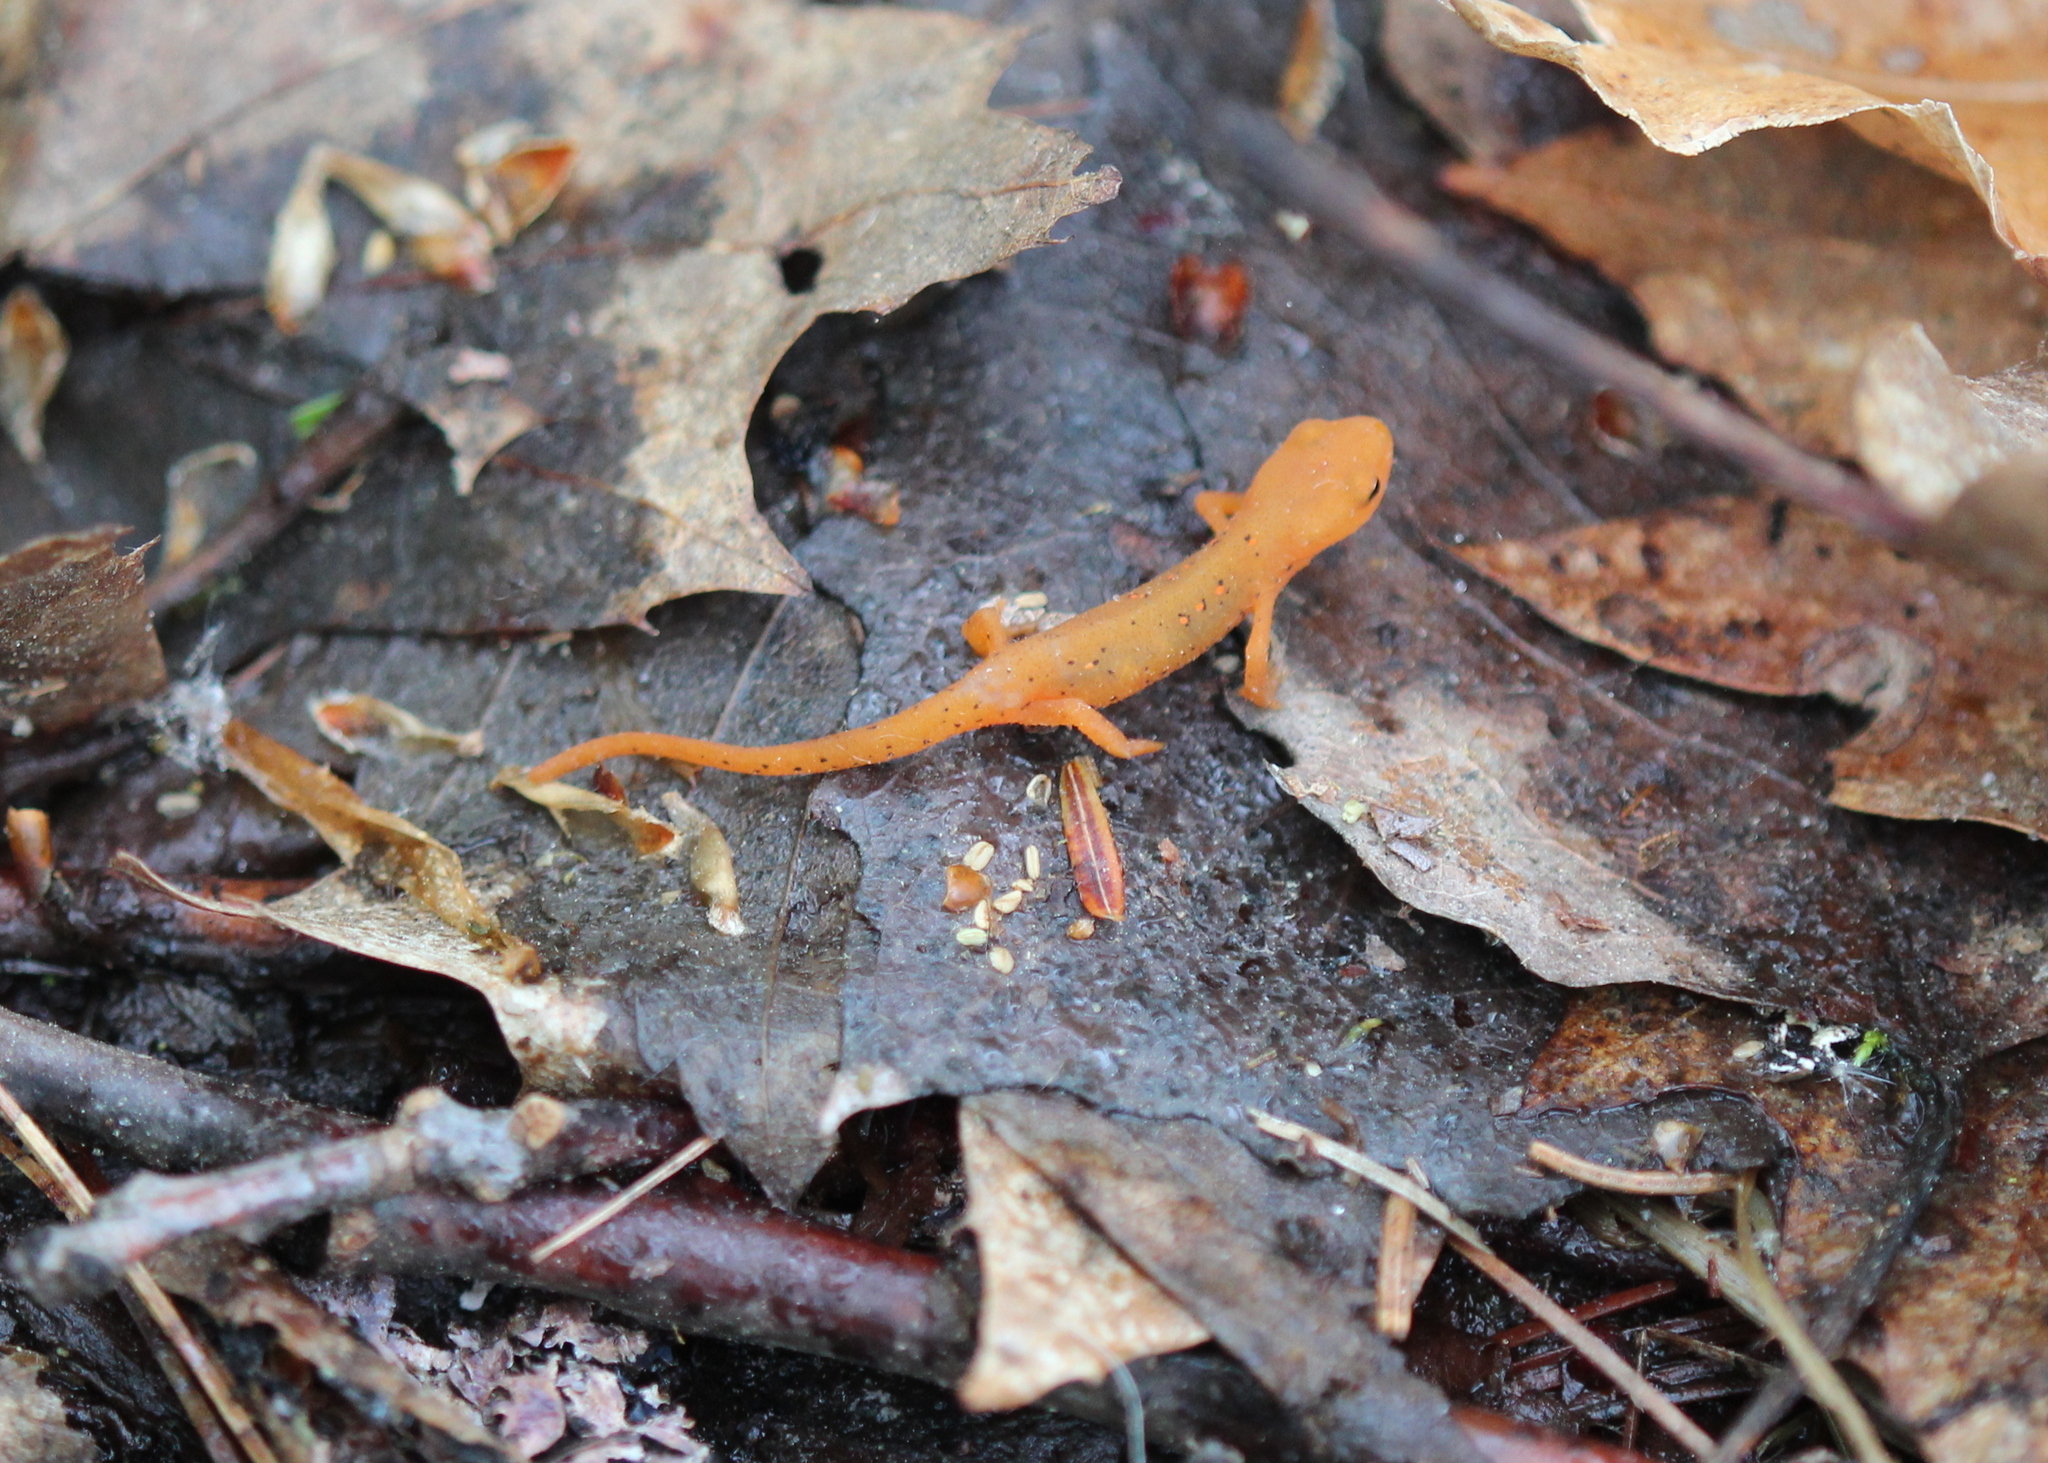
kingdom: Animalia
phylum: Chordata
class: Amphibia
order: Caudata
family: Salamandridae
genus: Notophthalmus
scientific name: Notophthalmus viridescens
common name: Eastern newt
